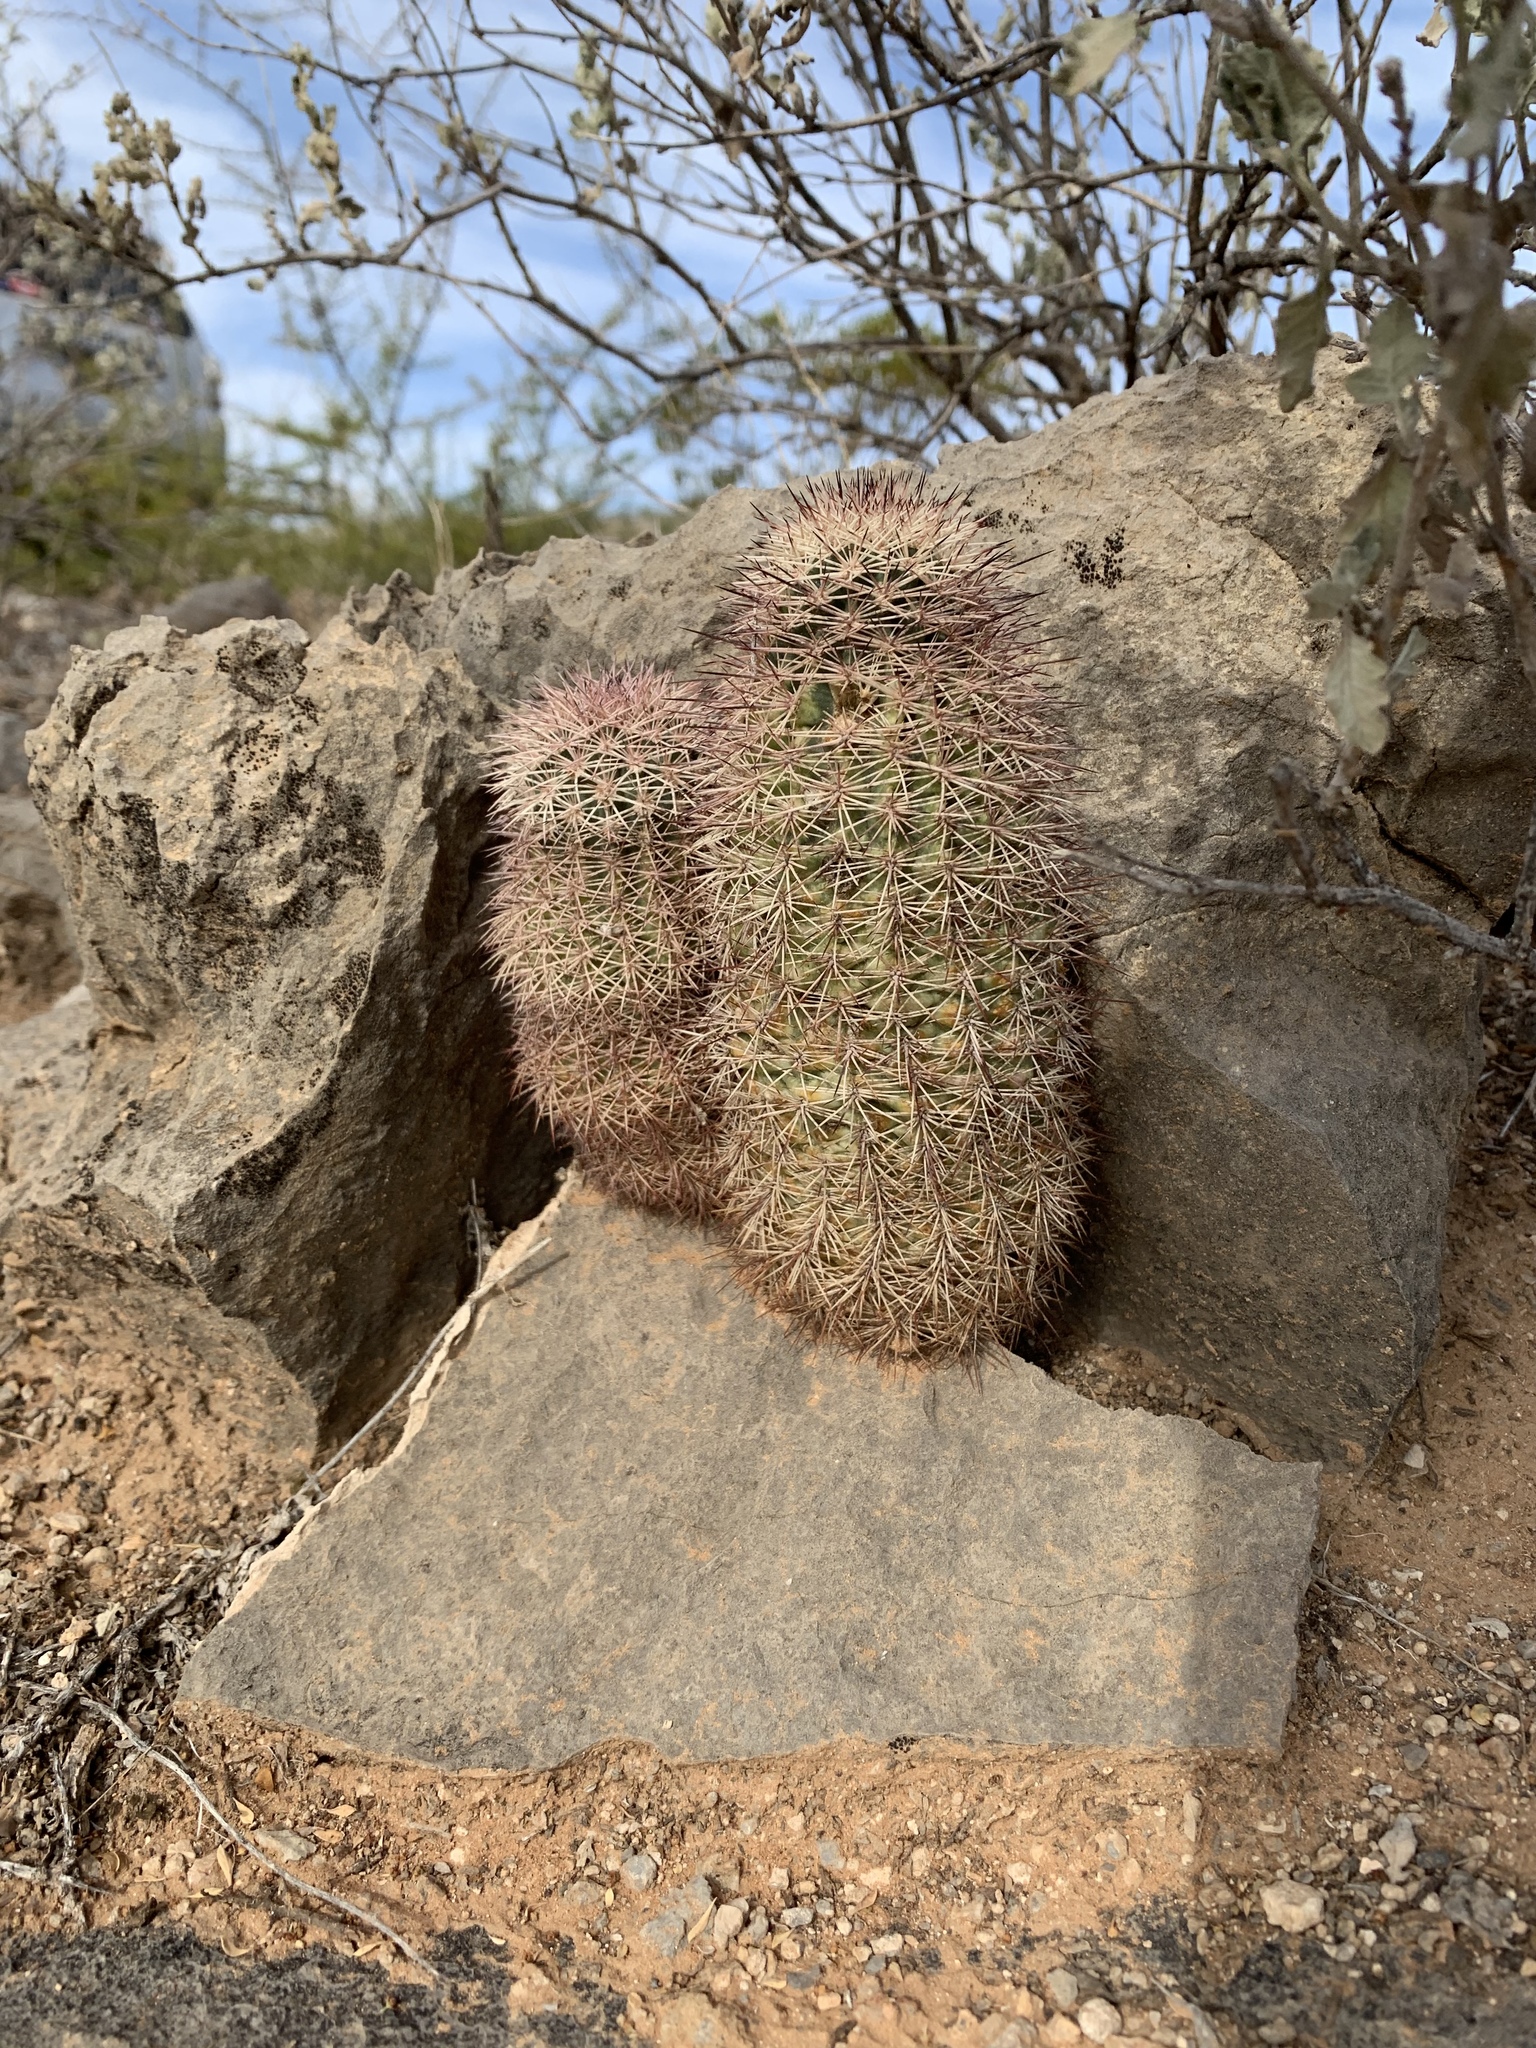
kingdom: Plantae
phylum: Tracheophyta
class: Magnoliopsida
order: Caryophyllales
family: Cactaceae
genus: Echinocereus
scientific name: Echinocereus dasyacanthus
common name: Spiny hedgehog cactus
